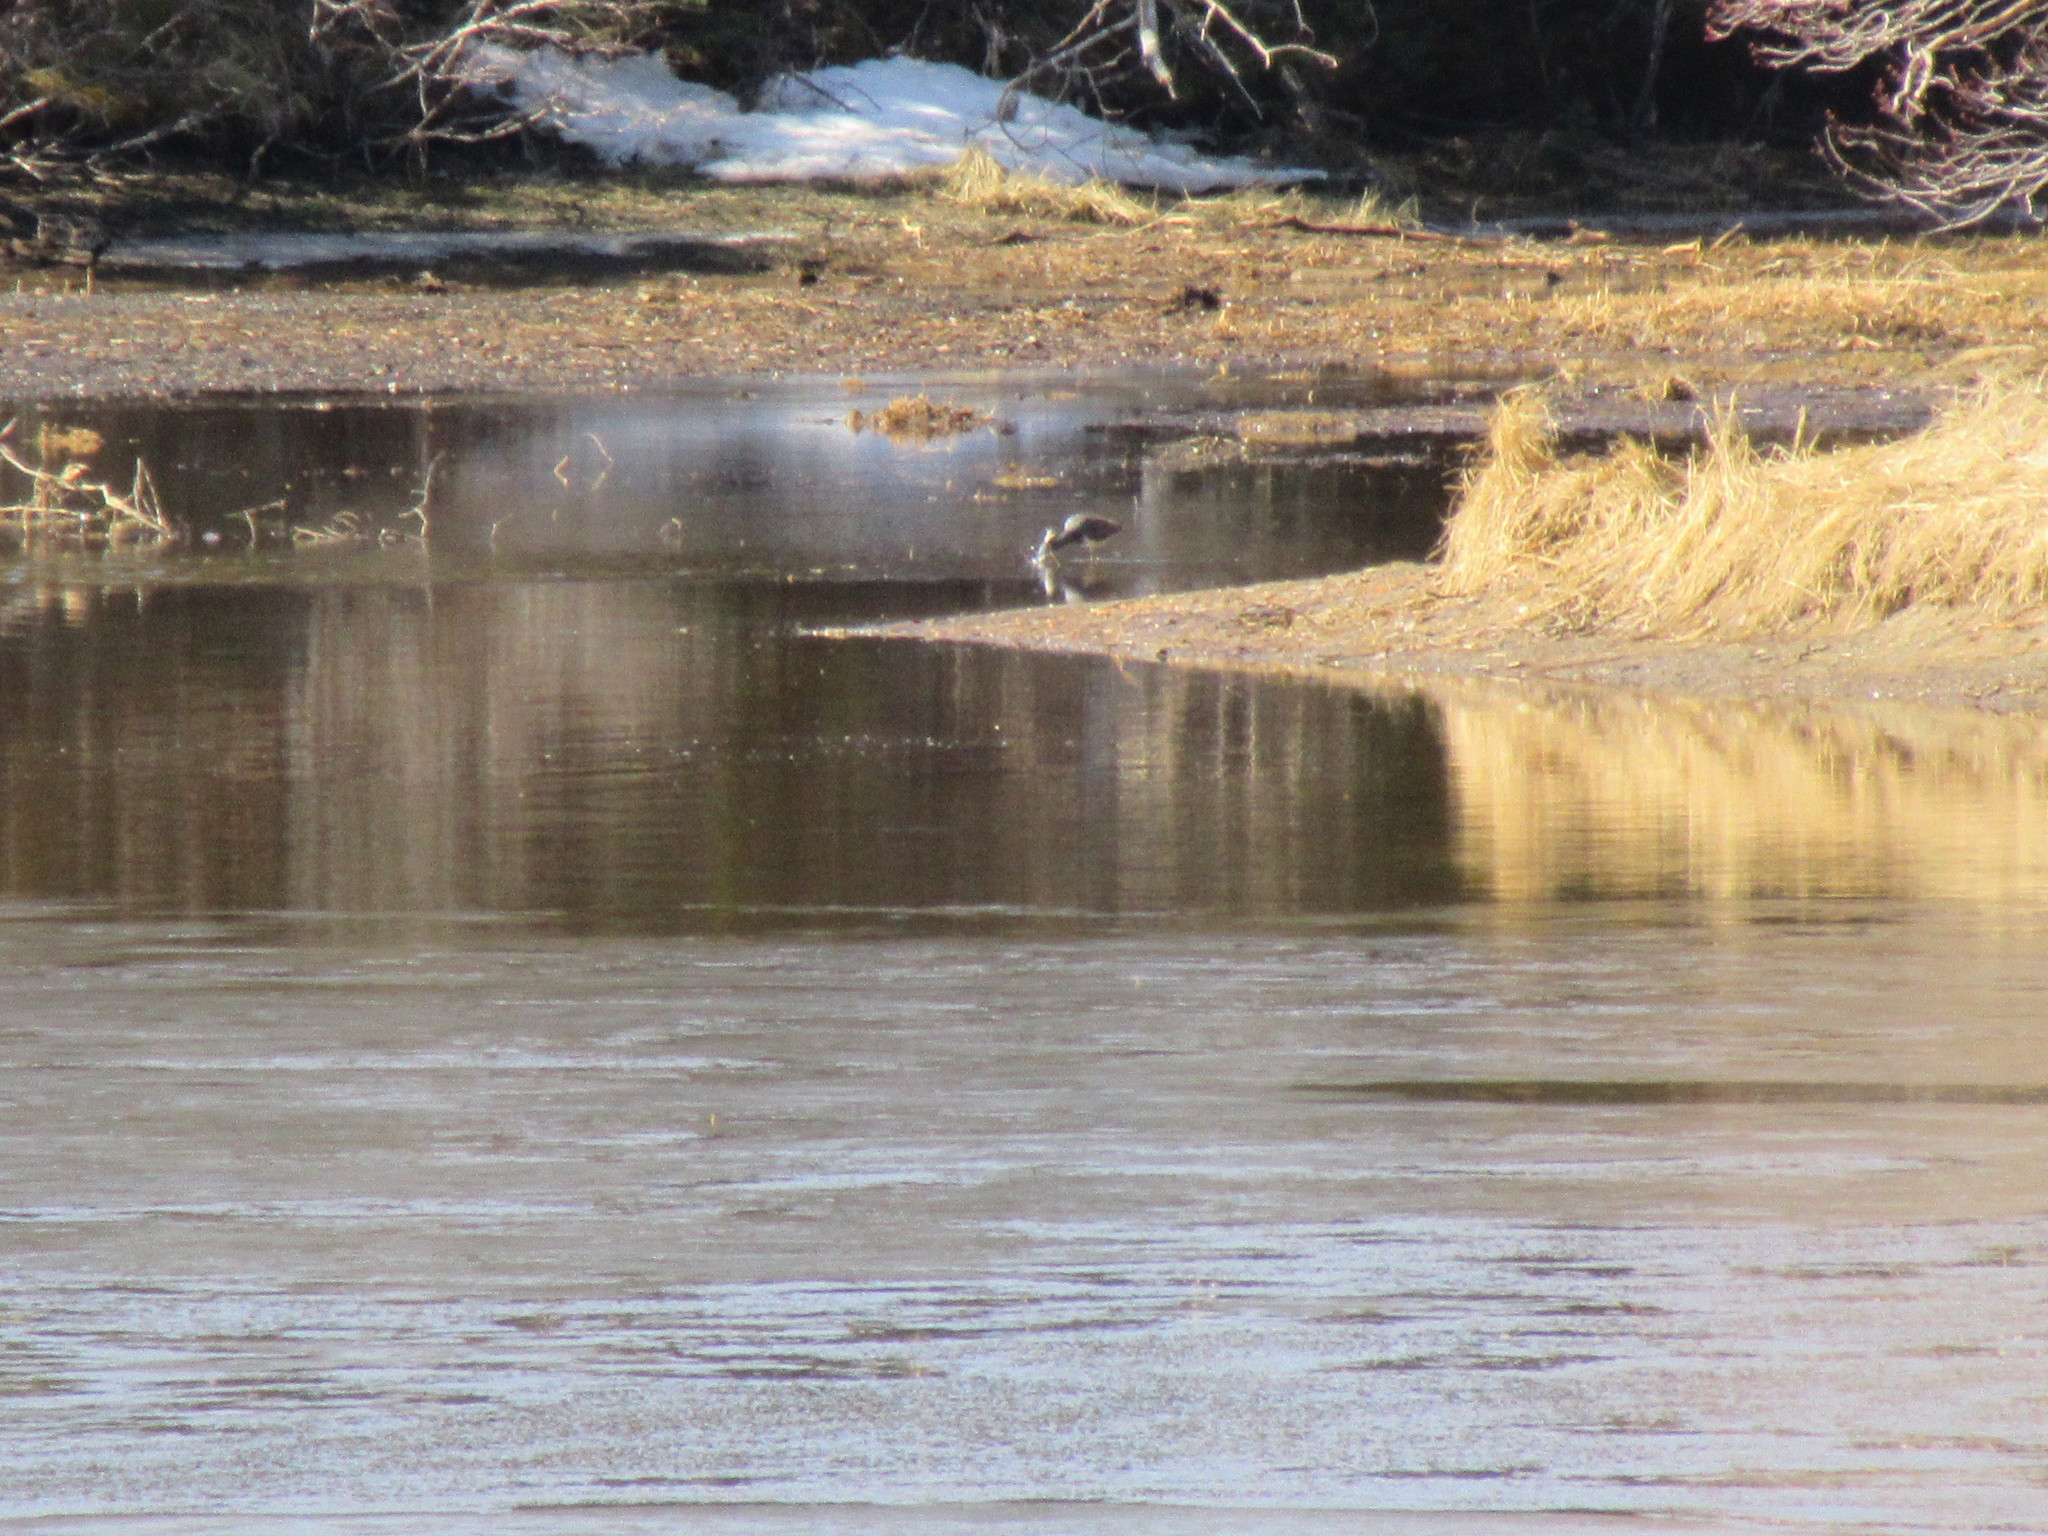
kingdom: Animalia
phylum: Chordata
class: Aves
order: Pelecaniformes
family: Ardeidae
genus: Egretta
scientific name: Egretta tricolor
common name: Tricolored heron
